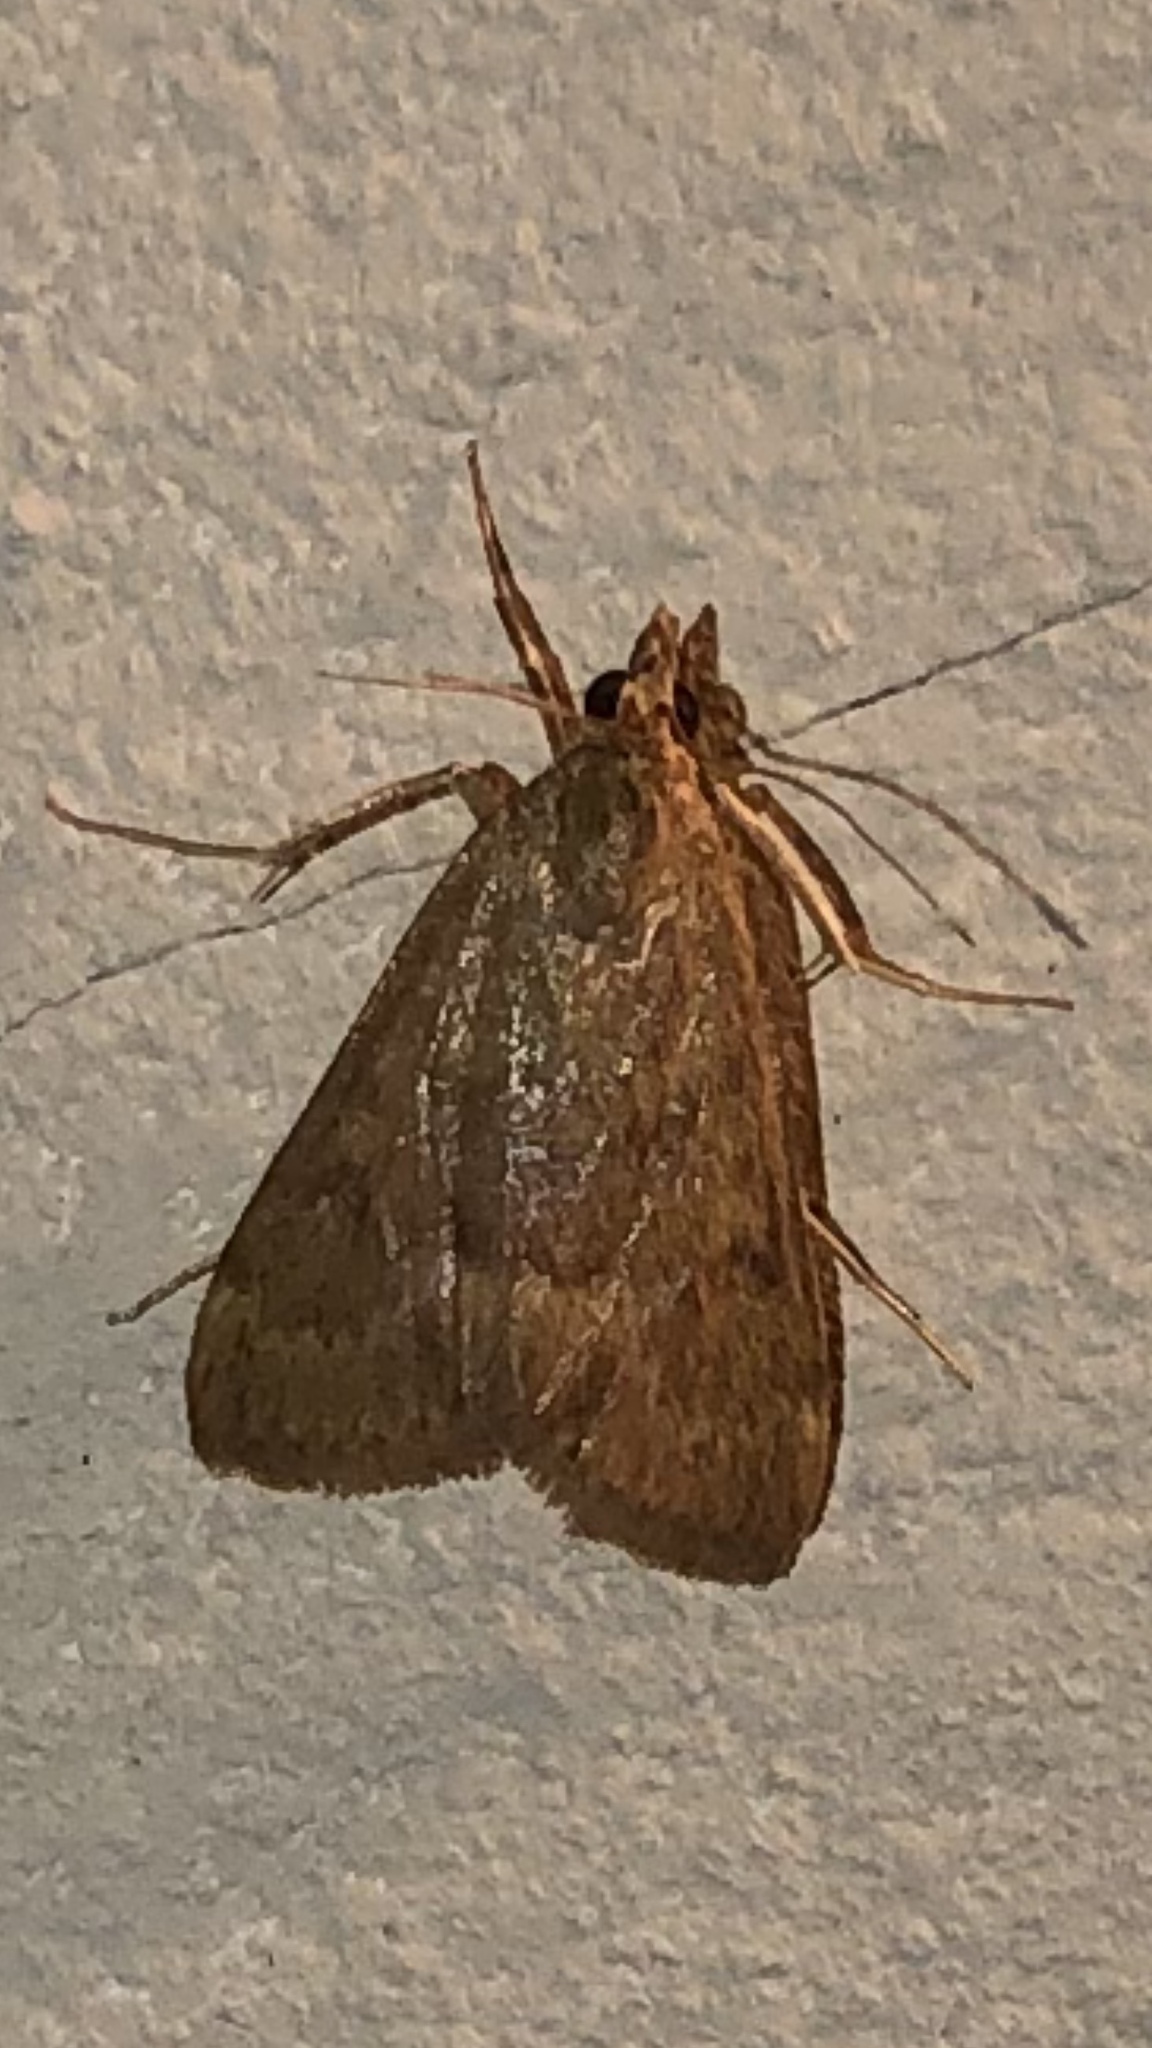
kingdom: Animalia
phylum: Arthropoda
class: Insecta
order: Lepidoptera
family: Crambidae
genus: Achyra
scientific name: Achyra rantalis
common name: Garden webworm
